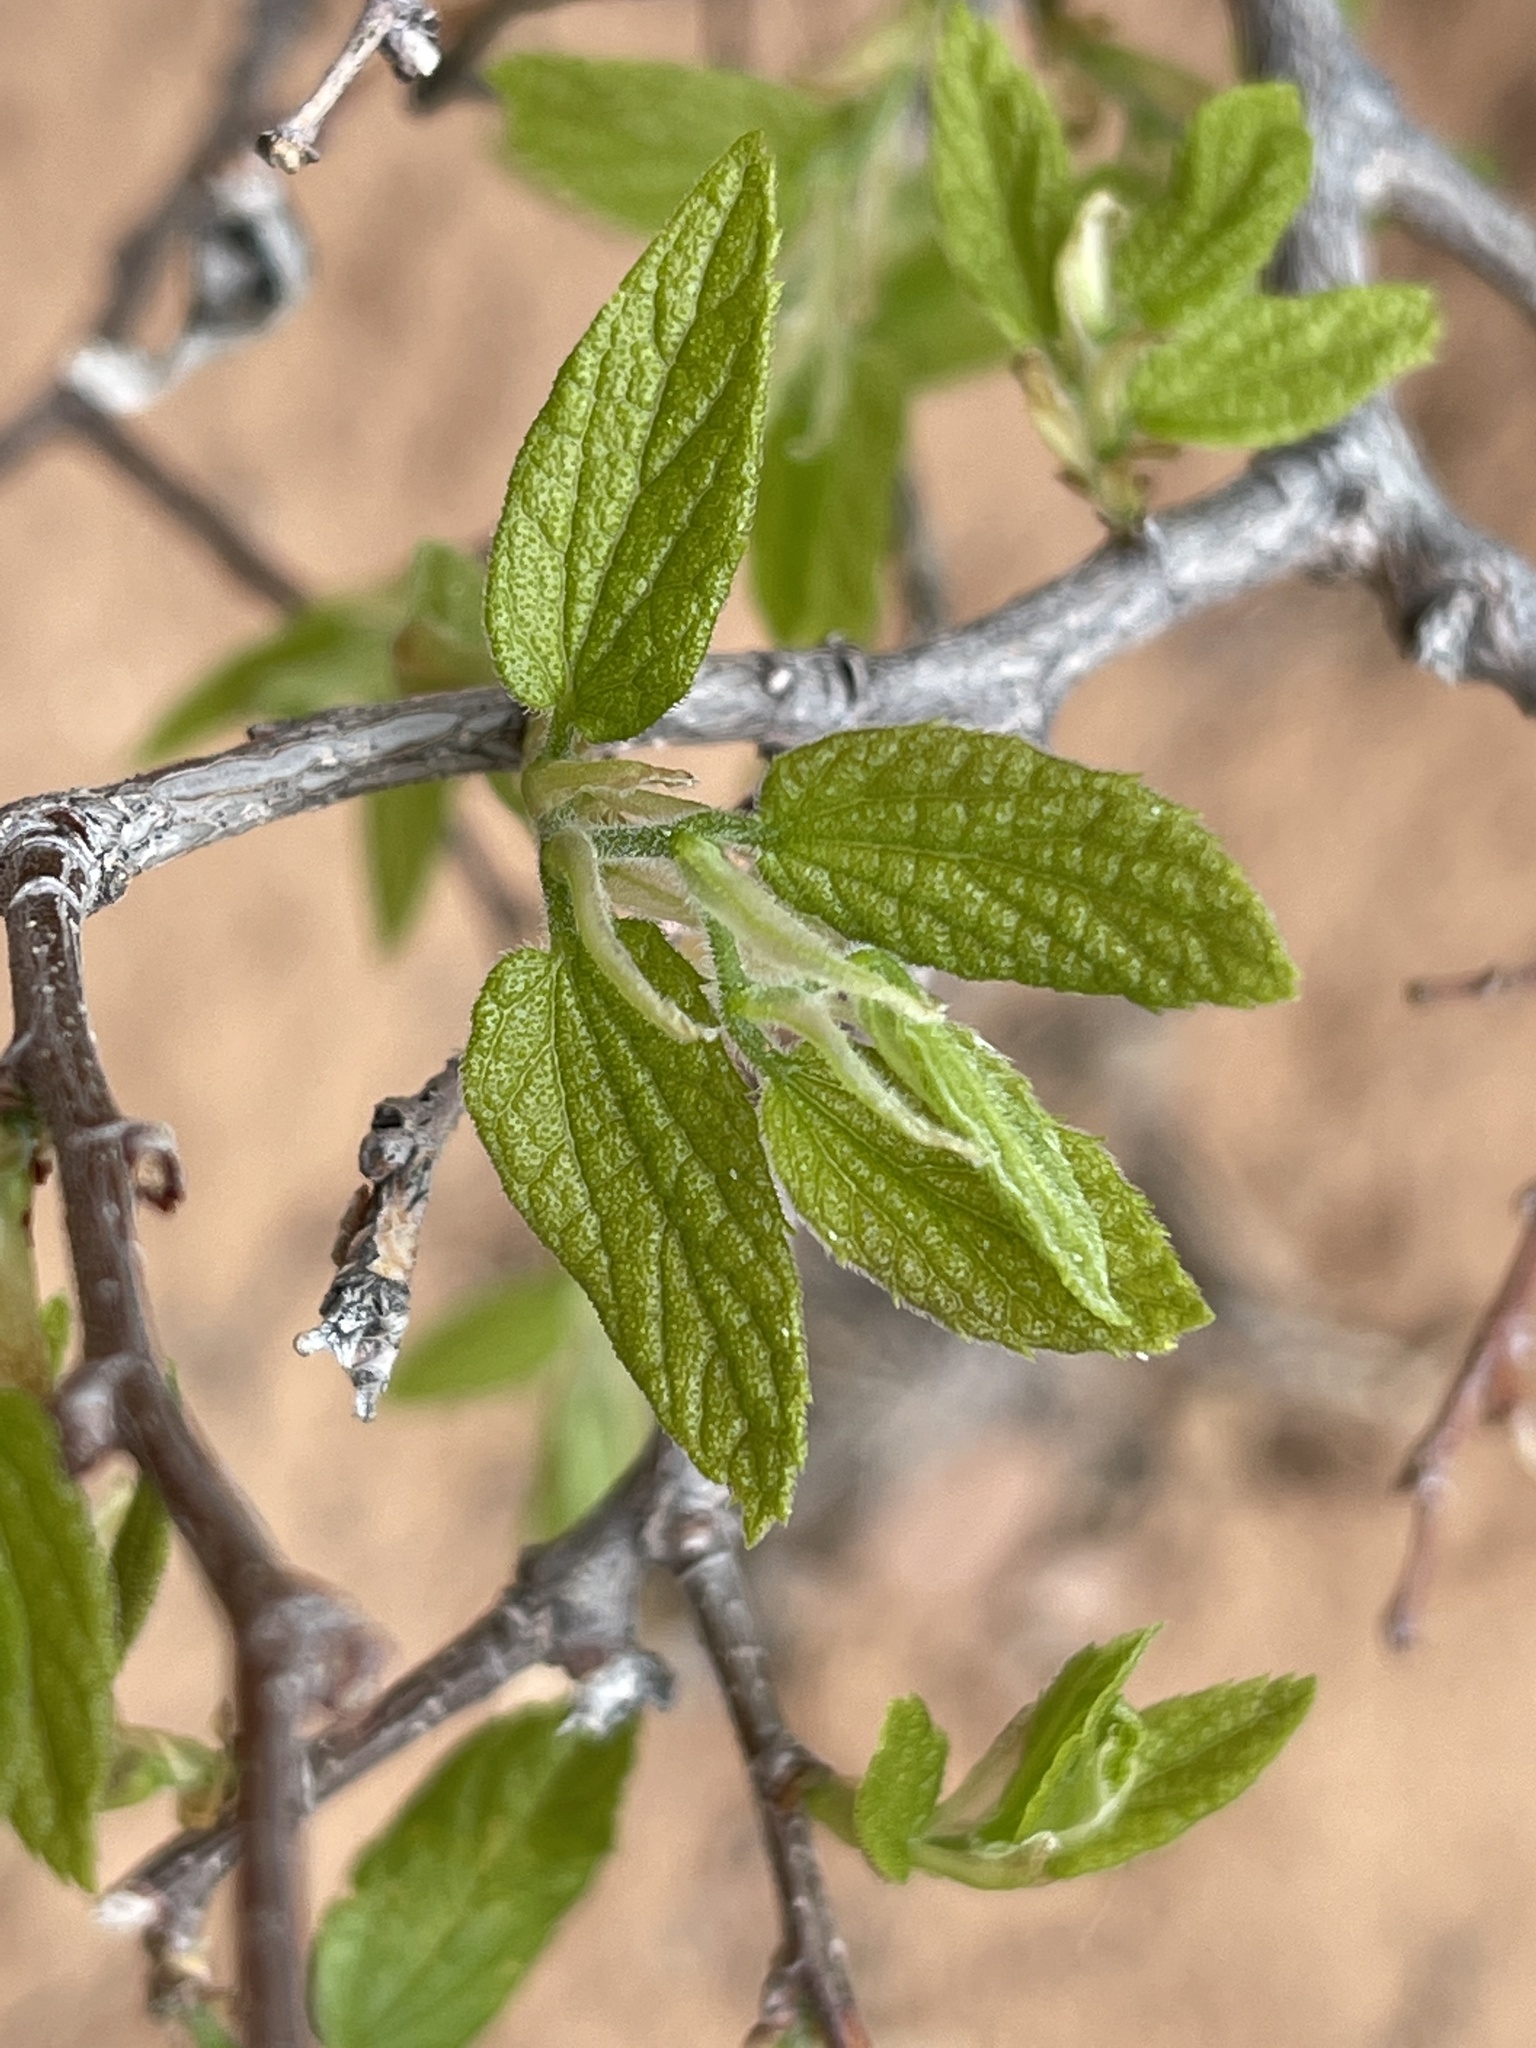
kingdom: Plantae
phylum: Tracheophyta
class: Magnoliopsida
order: Rosales
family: Cannabaceae
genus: Celtis
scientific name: Celtis reticulata
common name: Netleaf hackberry
